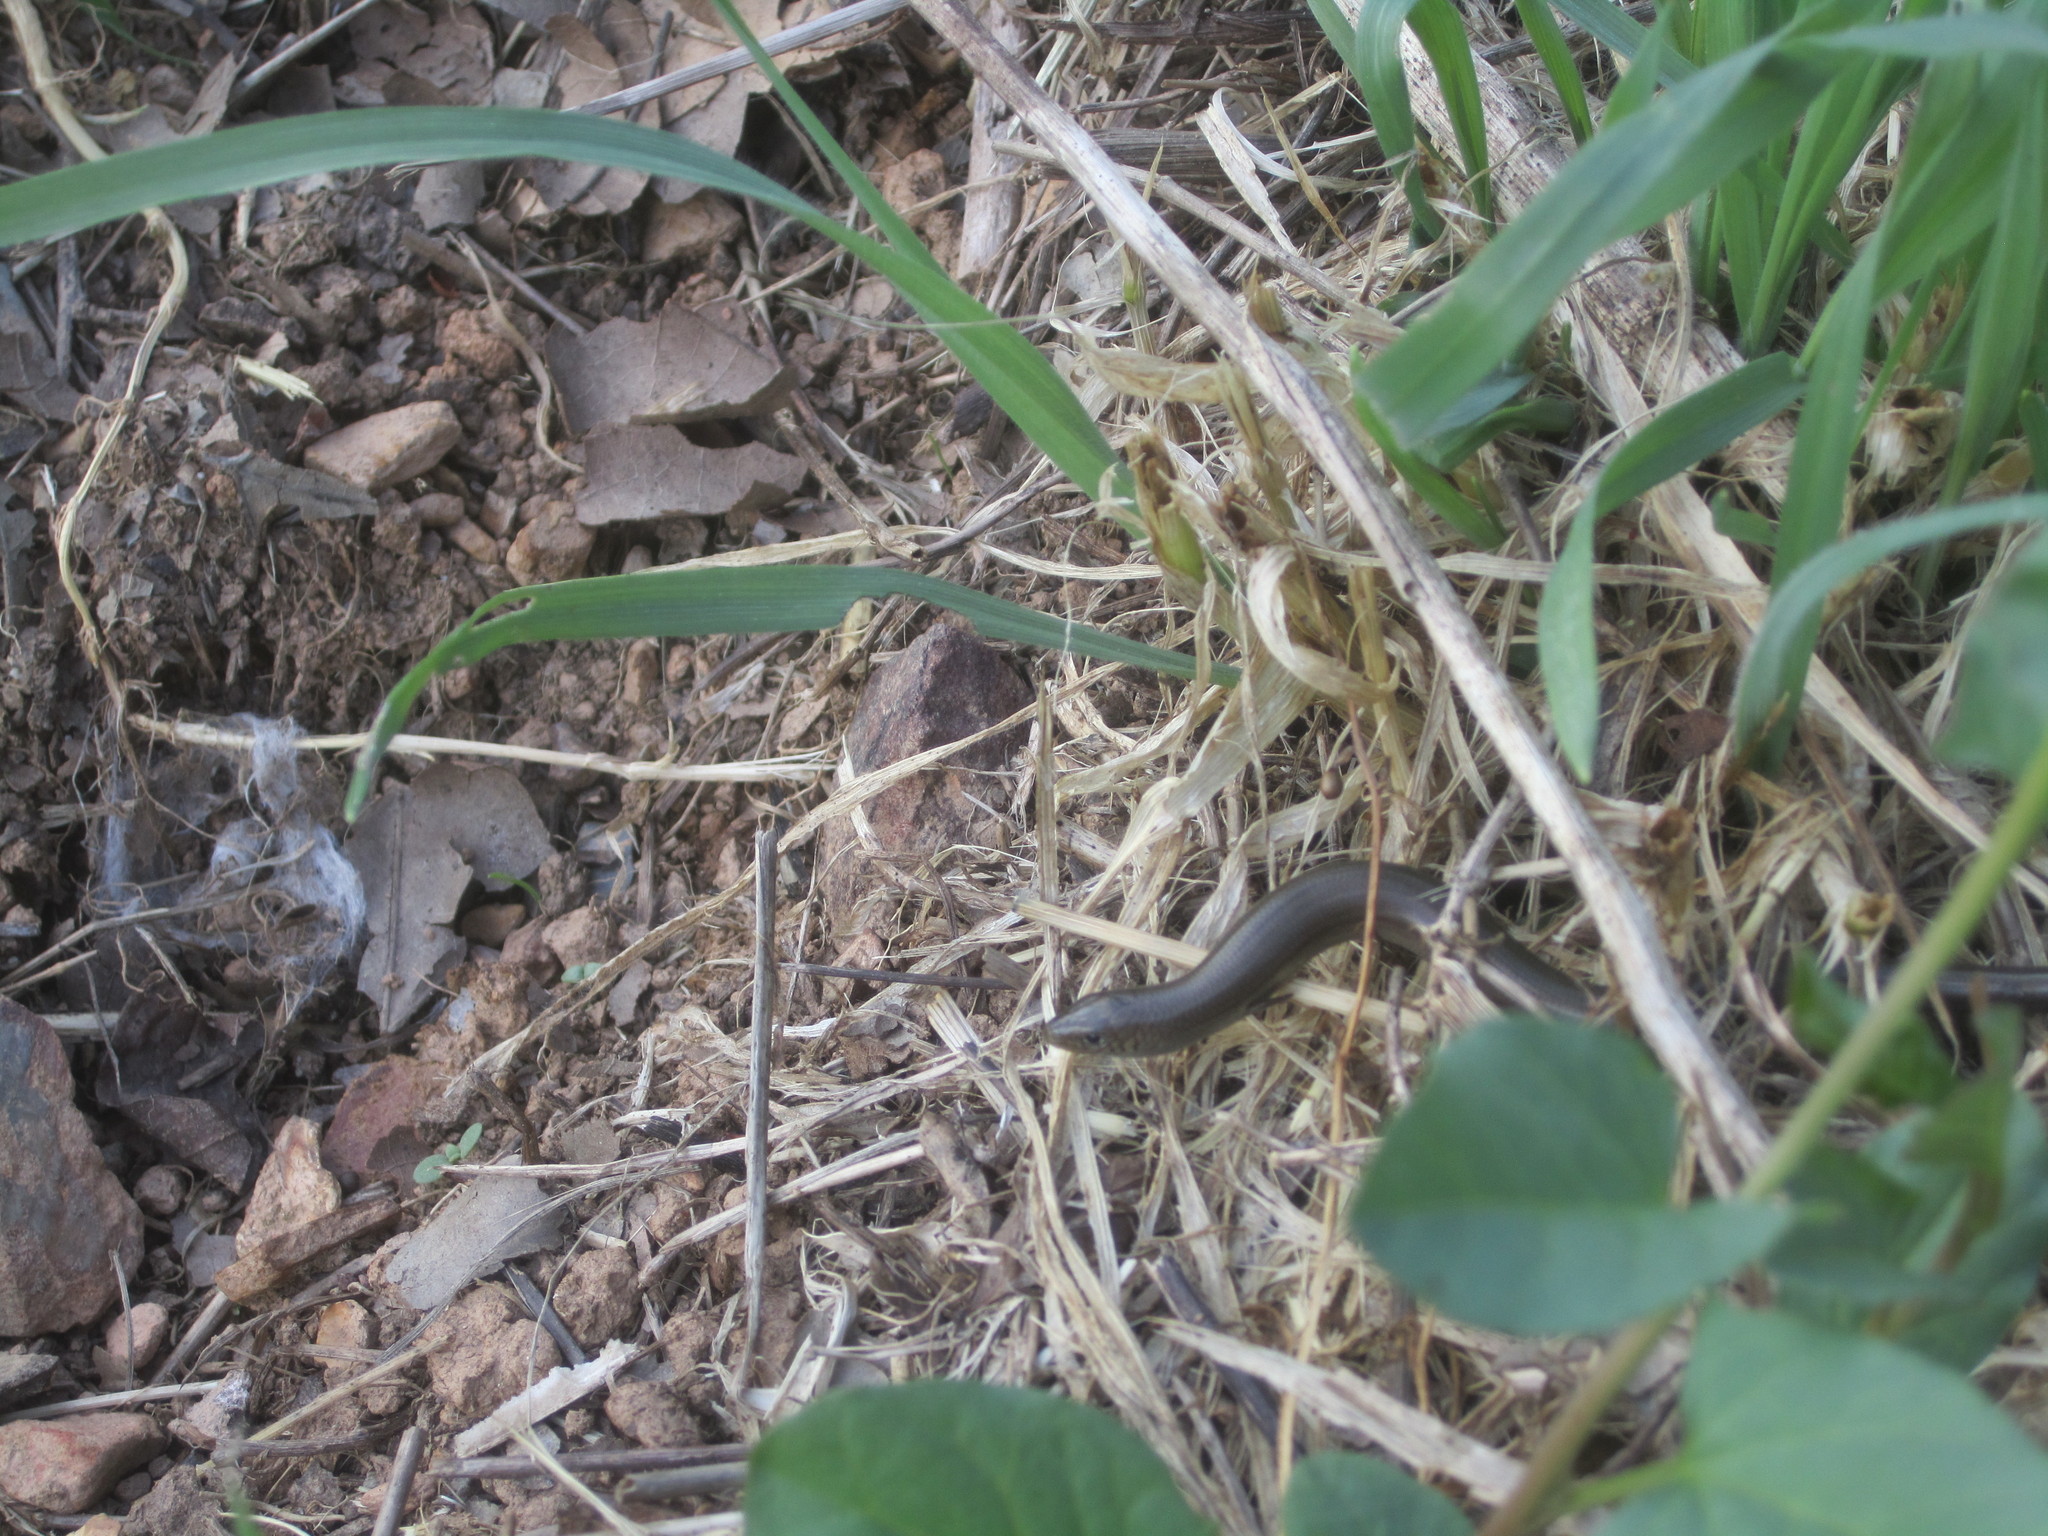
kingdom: Animalia
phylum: Chordata
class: Squamata
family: Scincidae
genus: Chalcides
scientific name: Chalcides striatus
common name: Western (or iberian) three-toed skink
